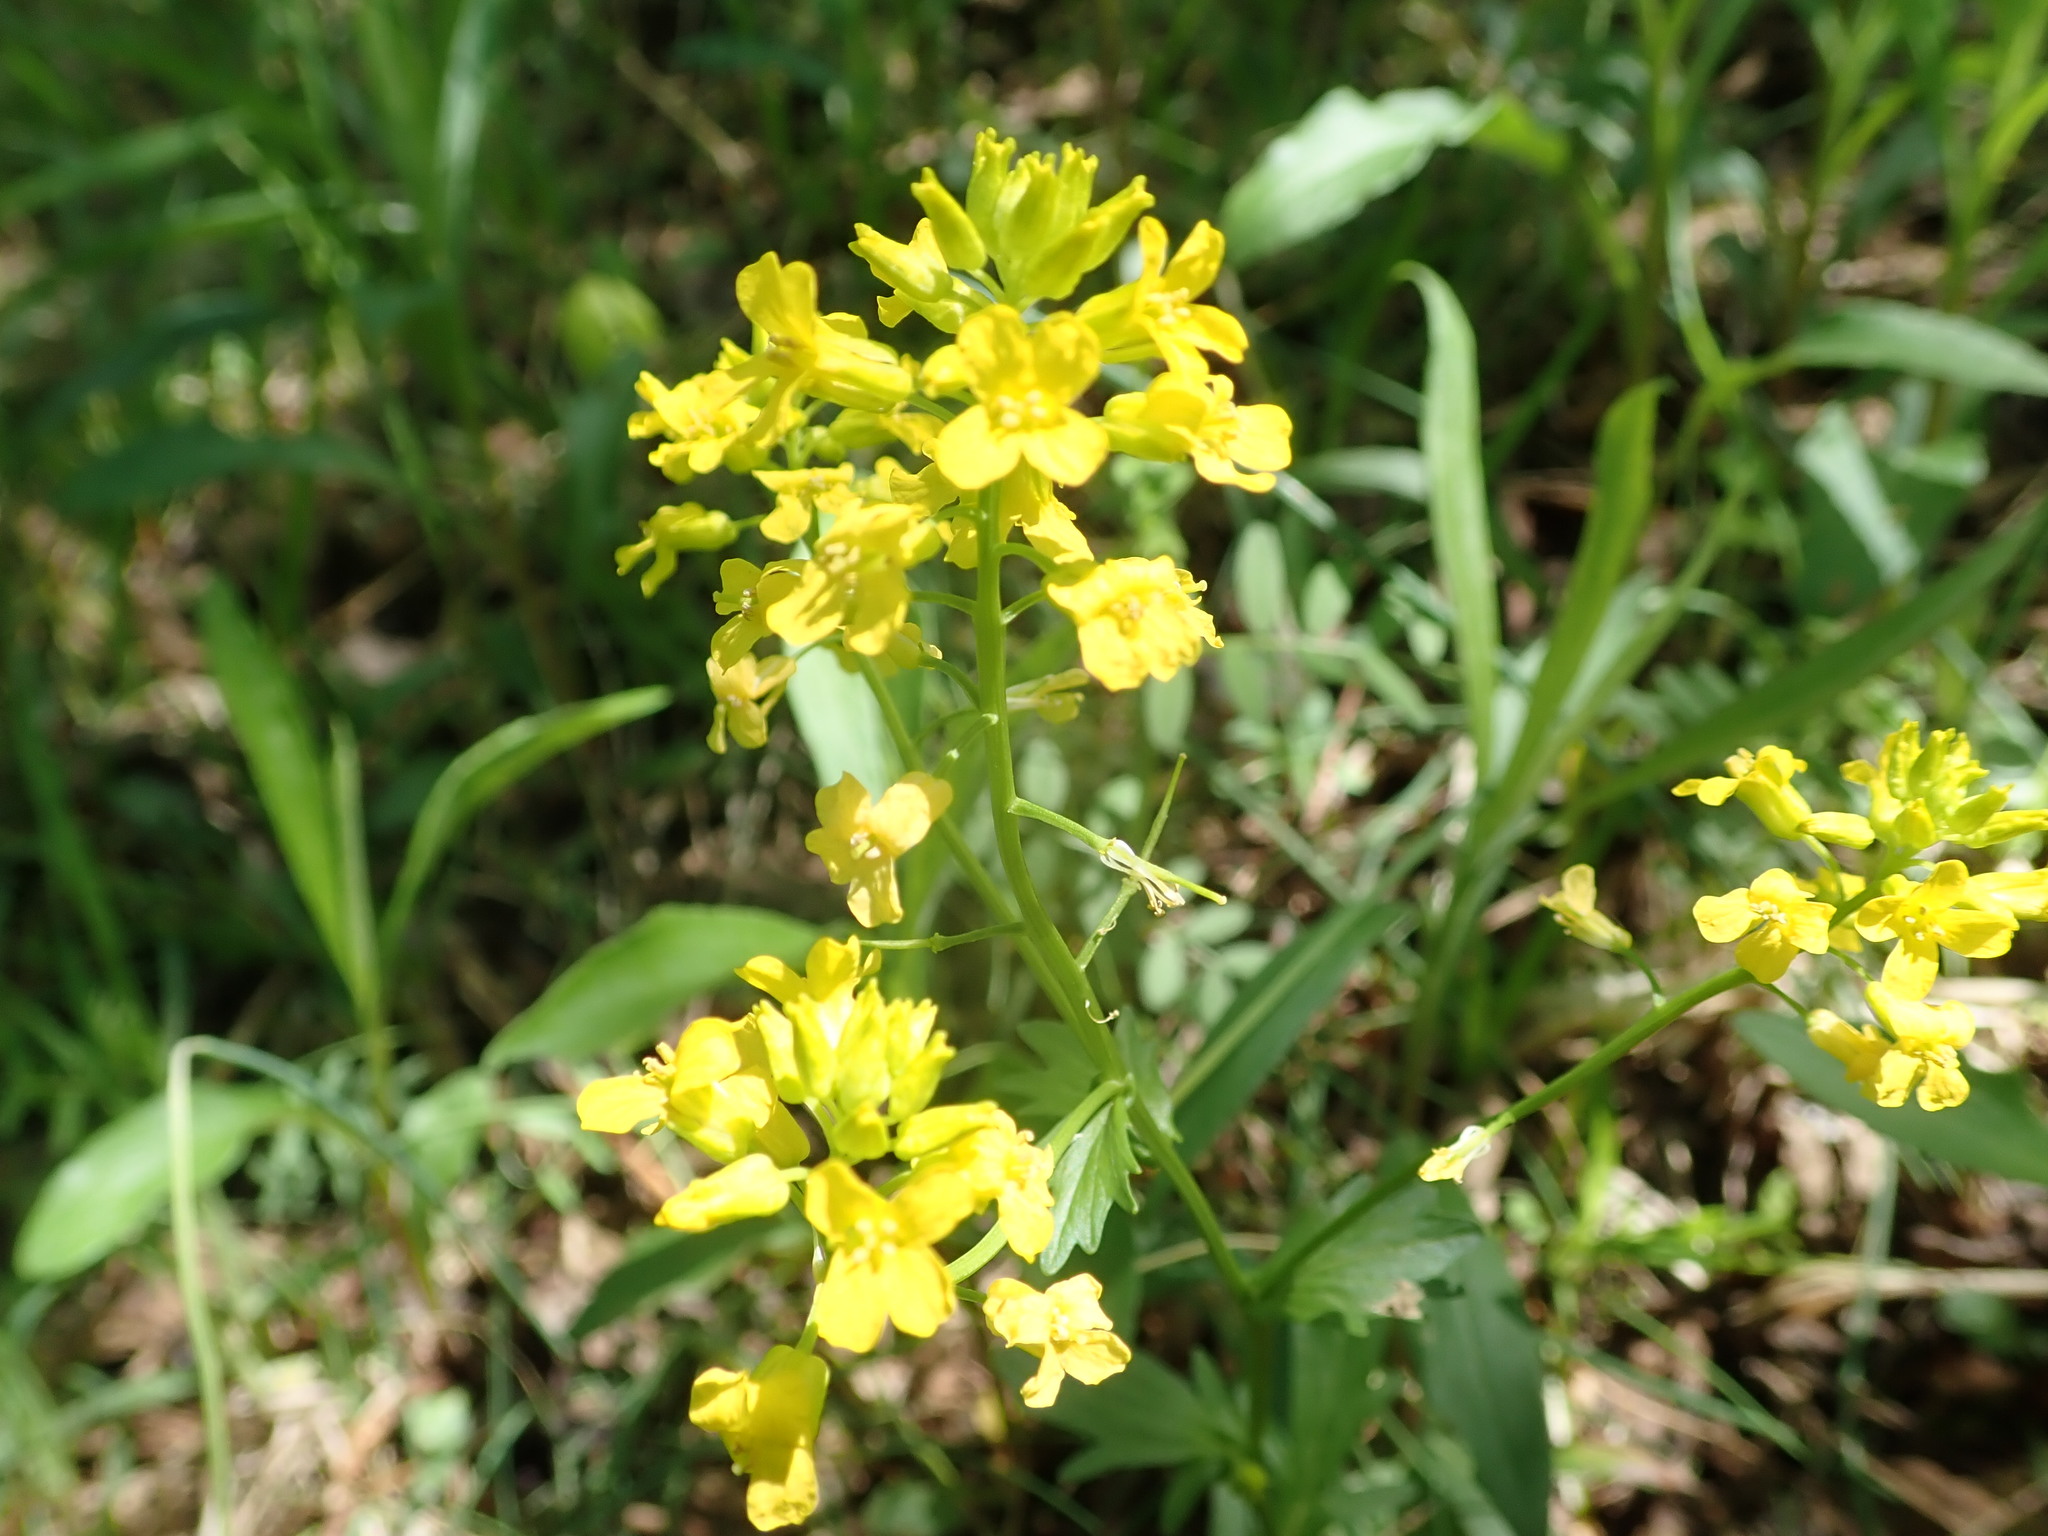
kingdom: Plantae
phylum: Tracheophyta
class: Magnoliopsida
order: Brassicales
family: Brassicaceae
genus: Barbarea
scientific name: Barbarea vulgaris
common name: Cressy-greens
